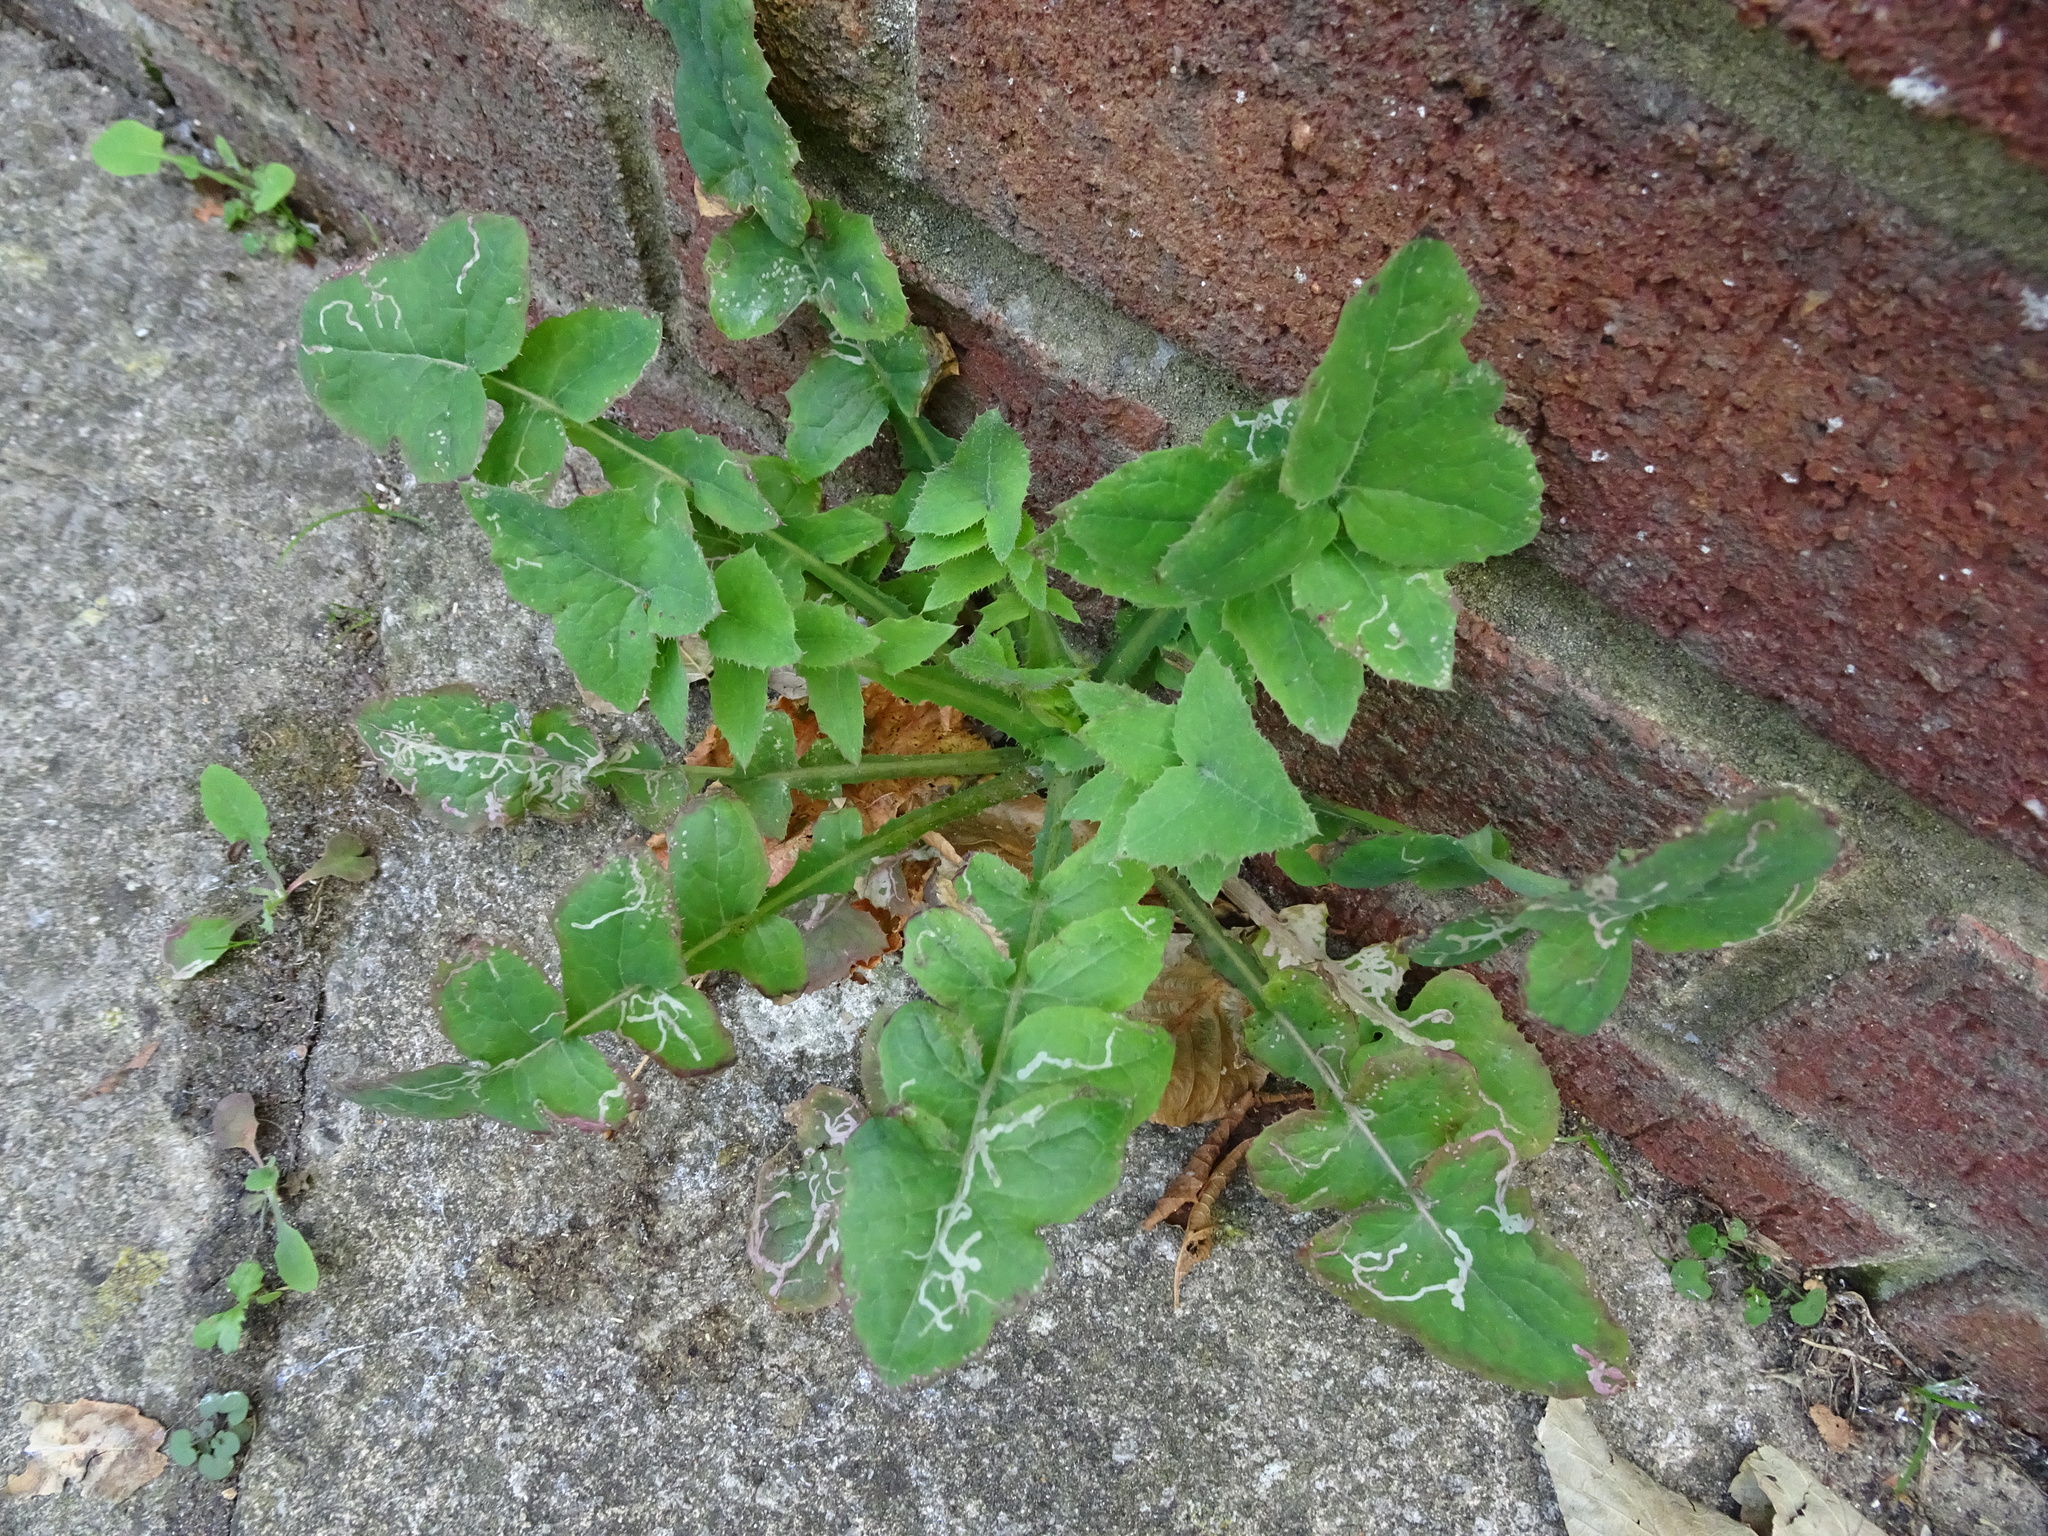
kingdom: Plantae
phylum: Tracheophyta
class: Magnoliopsida
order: Asterales
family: Asteraceae
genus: Sonchus
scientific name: Sonchus oleraceus
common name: Common sowthistle
